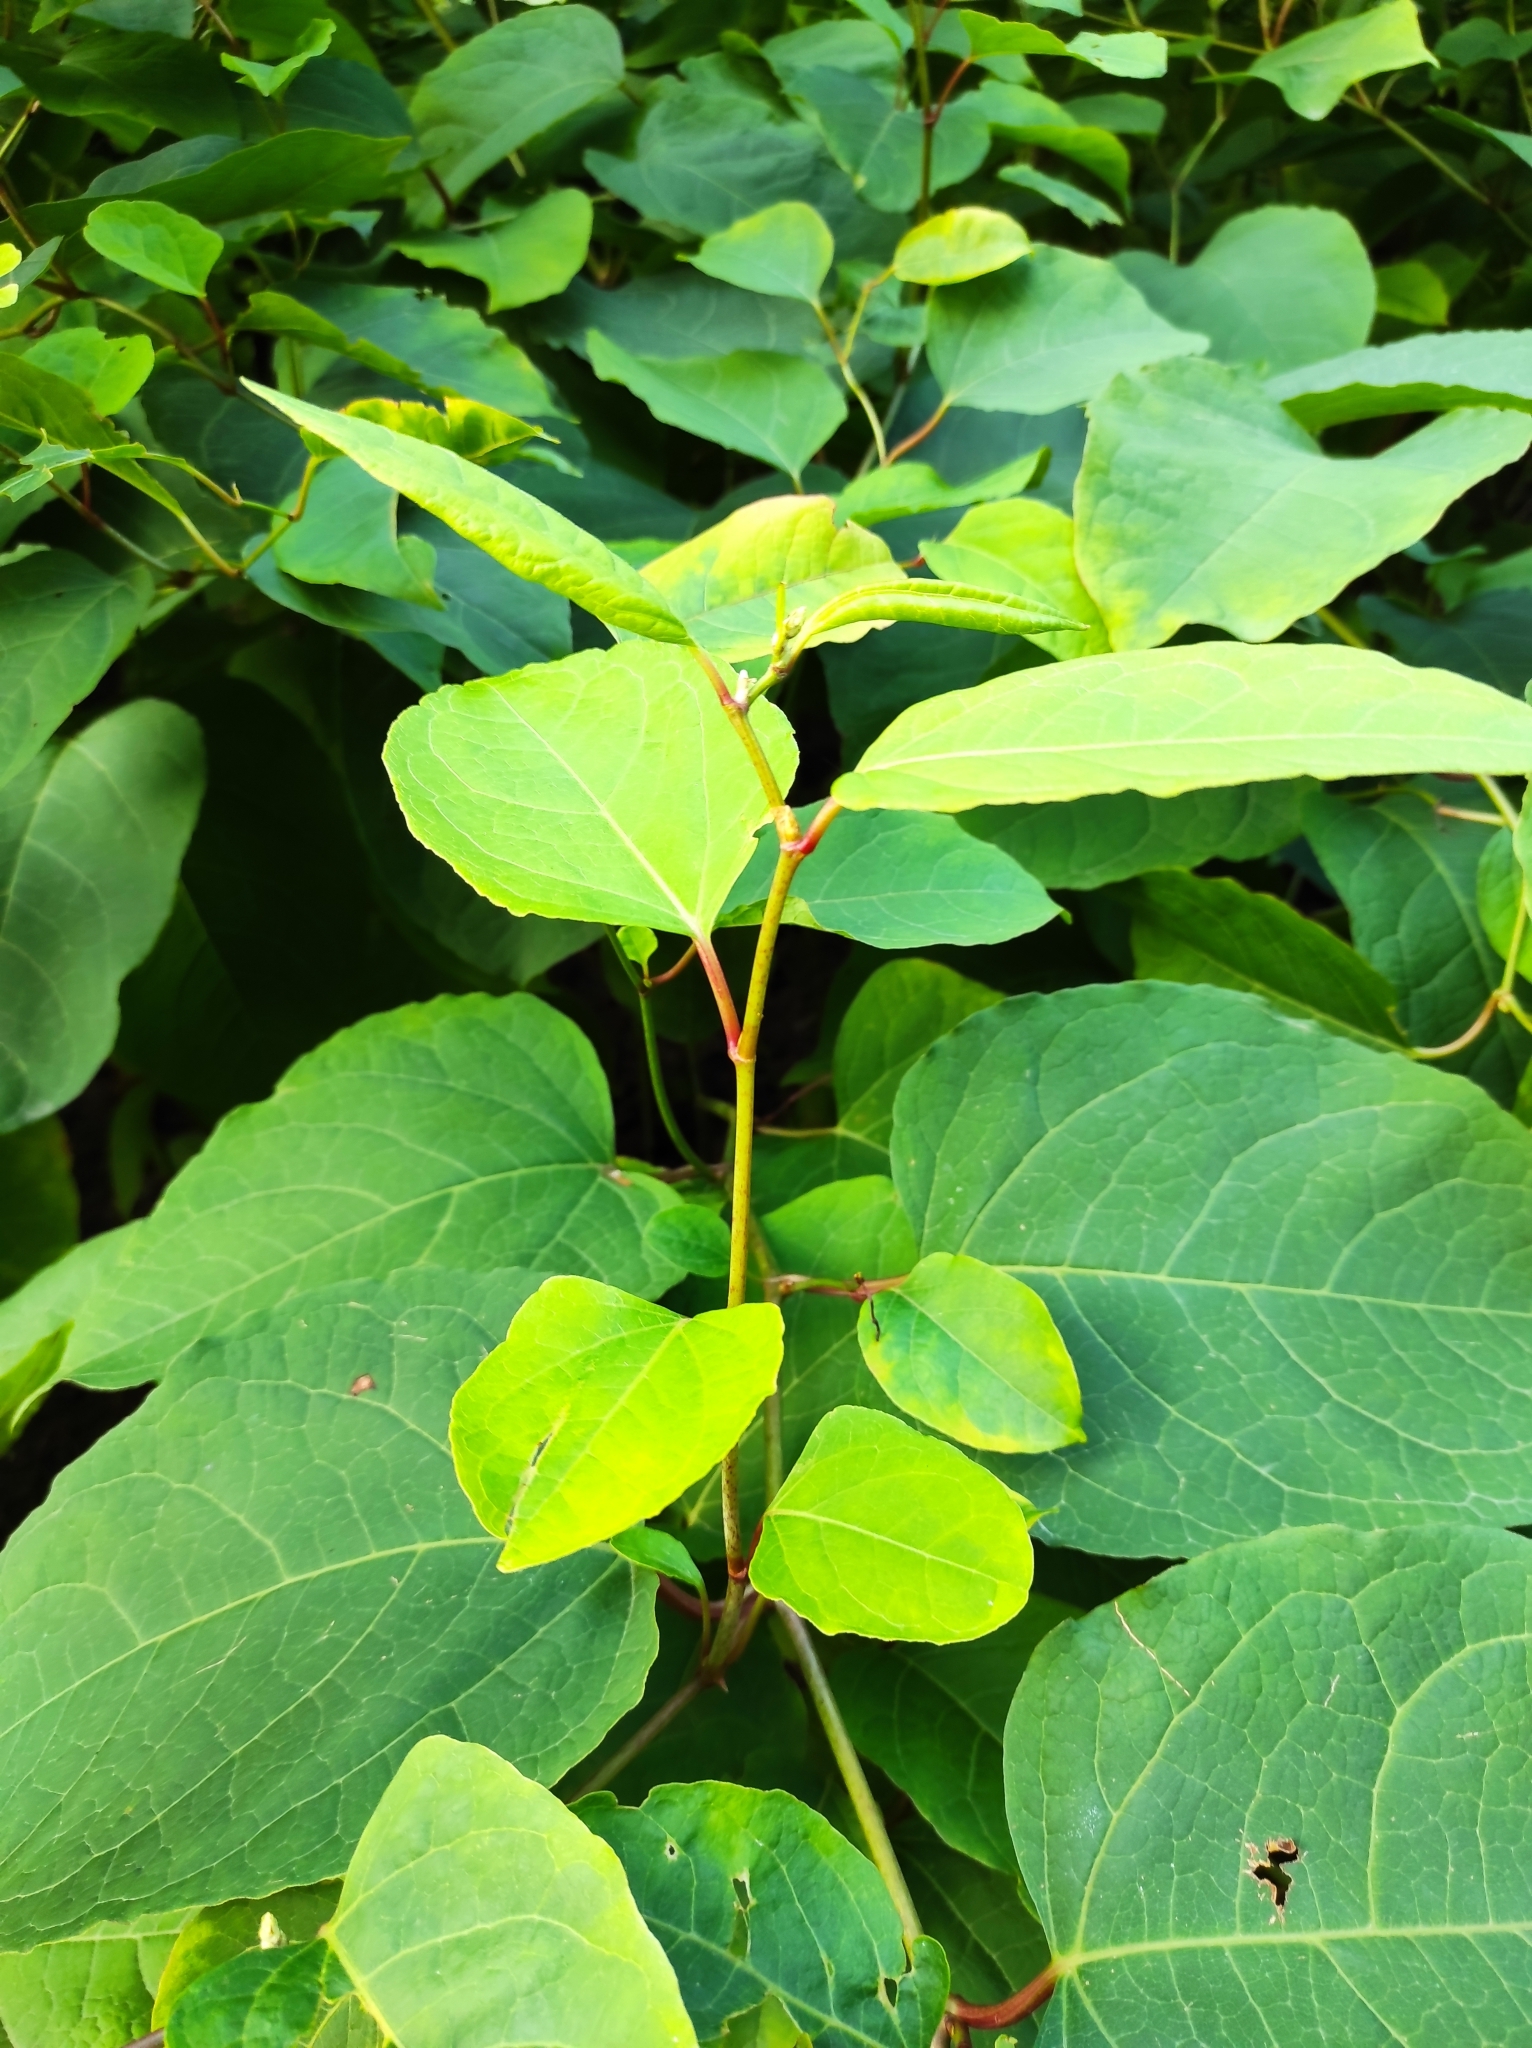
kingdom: Plantae
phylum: Tracheophyta
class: Magnoliopsida
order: Caryophyllales
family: Polygonaceae
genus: Reynoutria
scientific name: Reynoutria japonica
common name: Japanese knotweed
